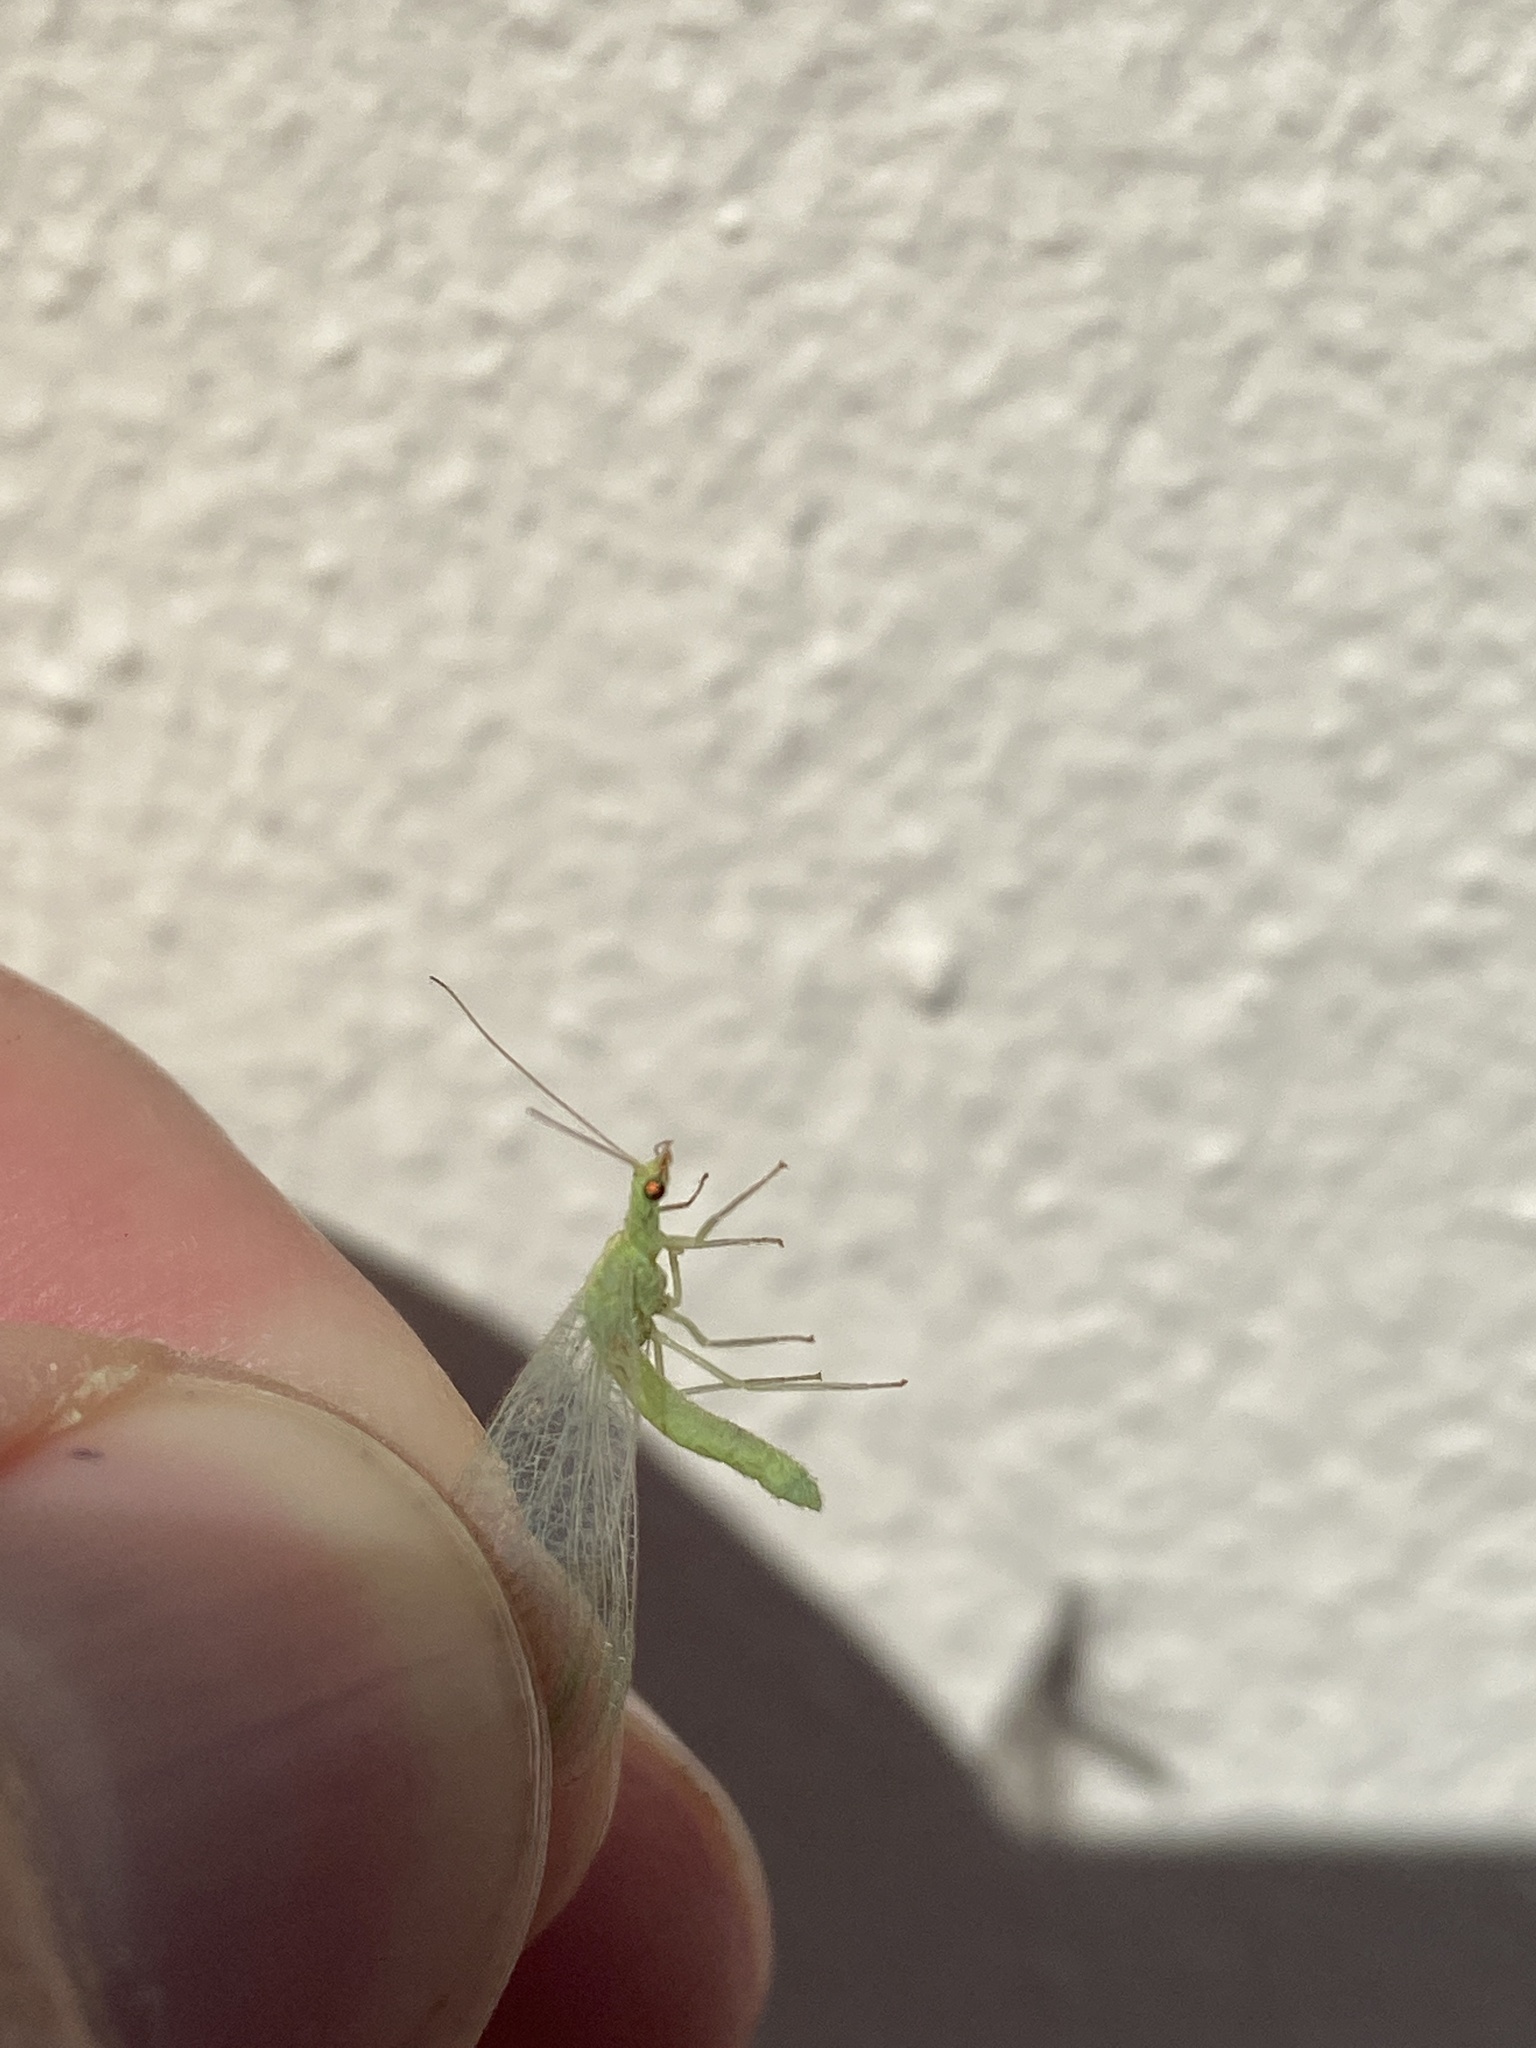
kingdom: Animalia
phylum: Arthropoda
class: Insecta
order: Neuroptera
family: Chrysopidae
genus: Chrysoperla
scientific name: Chrysoperla mutata
